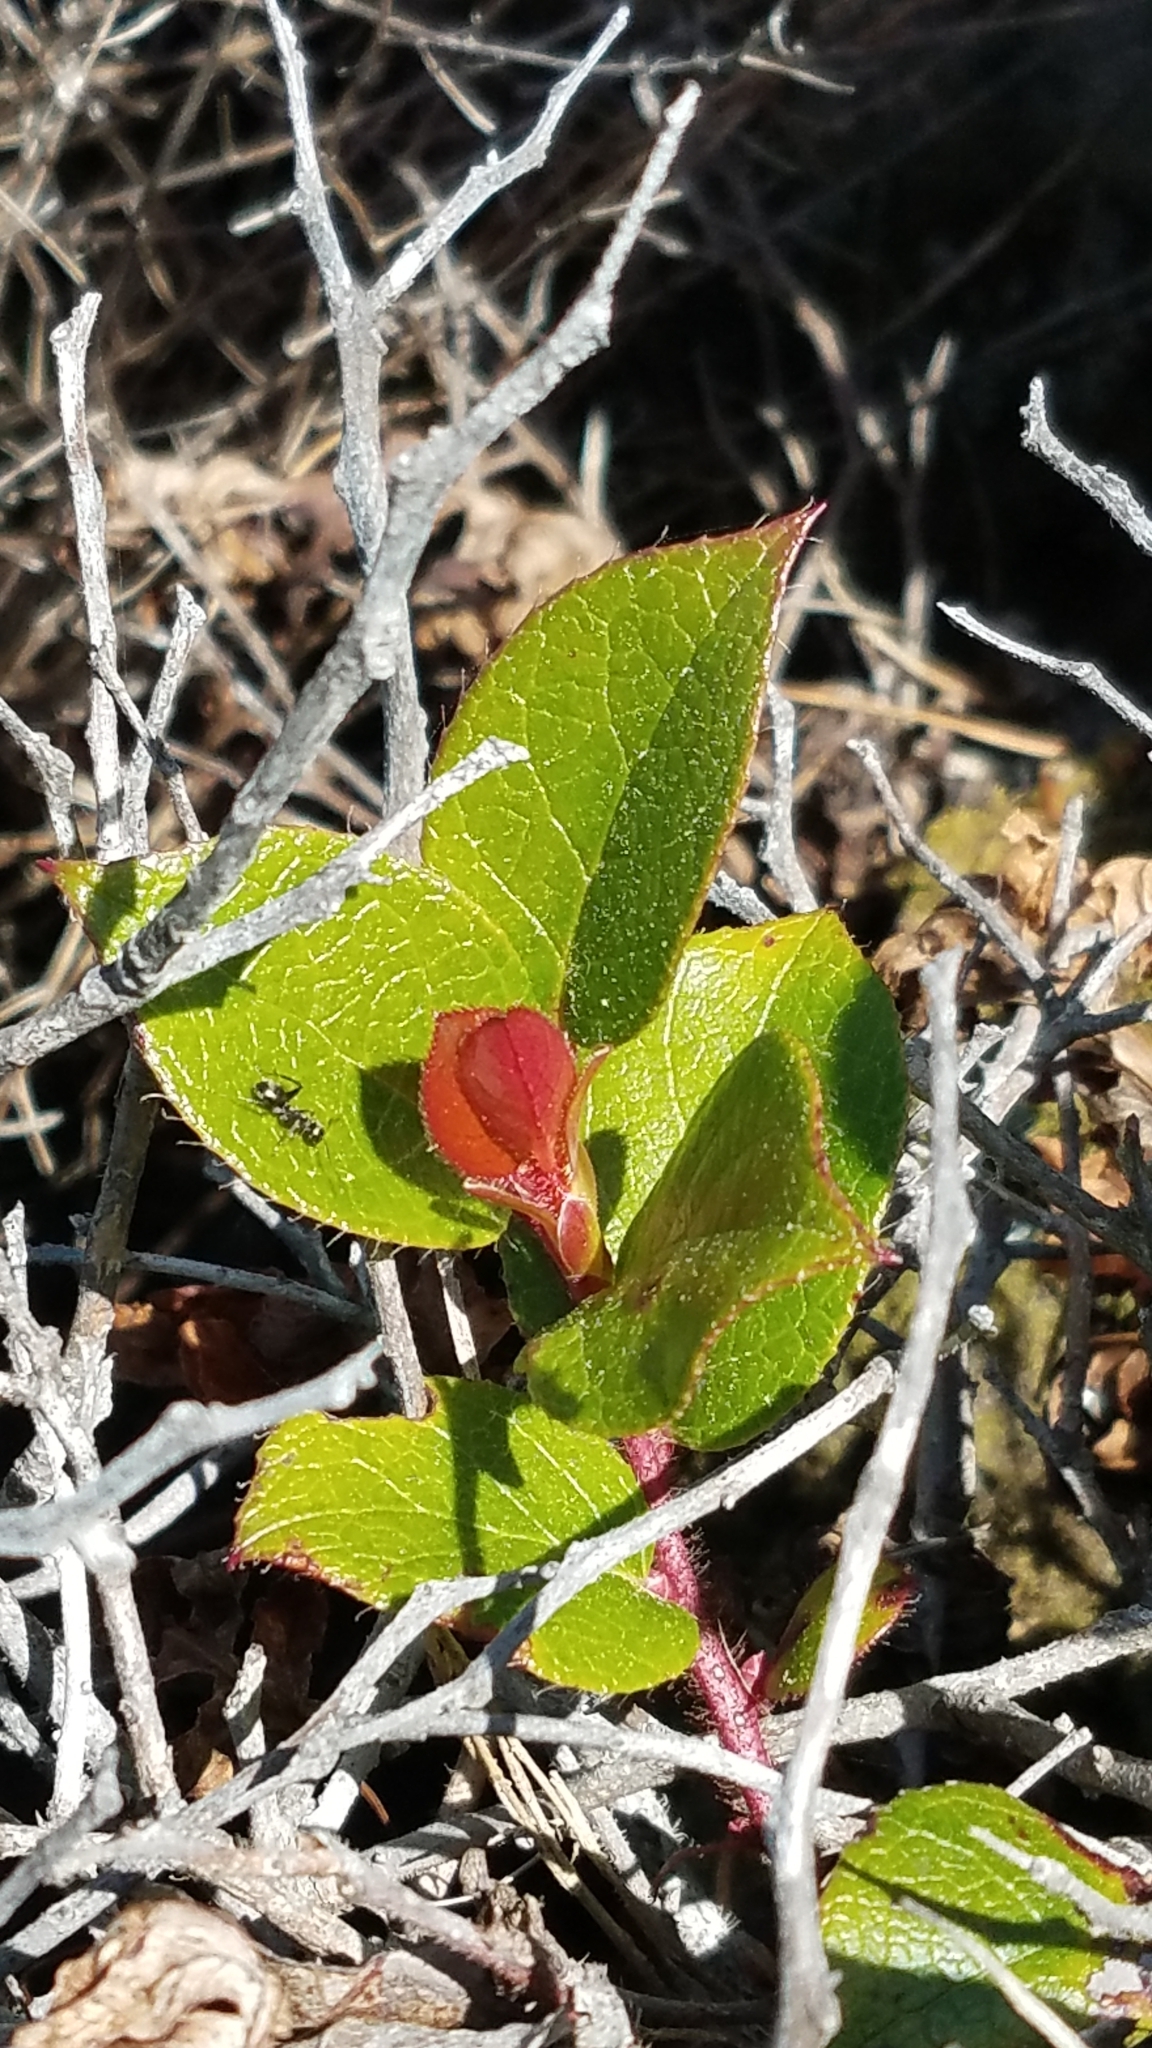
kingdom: Plantae
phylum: Tracheophyta
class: Magnoliopsida
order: Ericales
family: Ericaceae
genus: Gaultheria
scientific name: Gaultheria shallon
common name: Shallon
